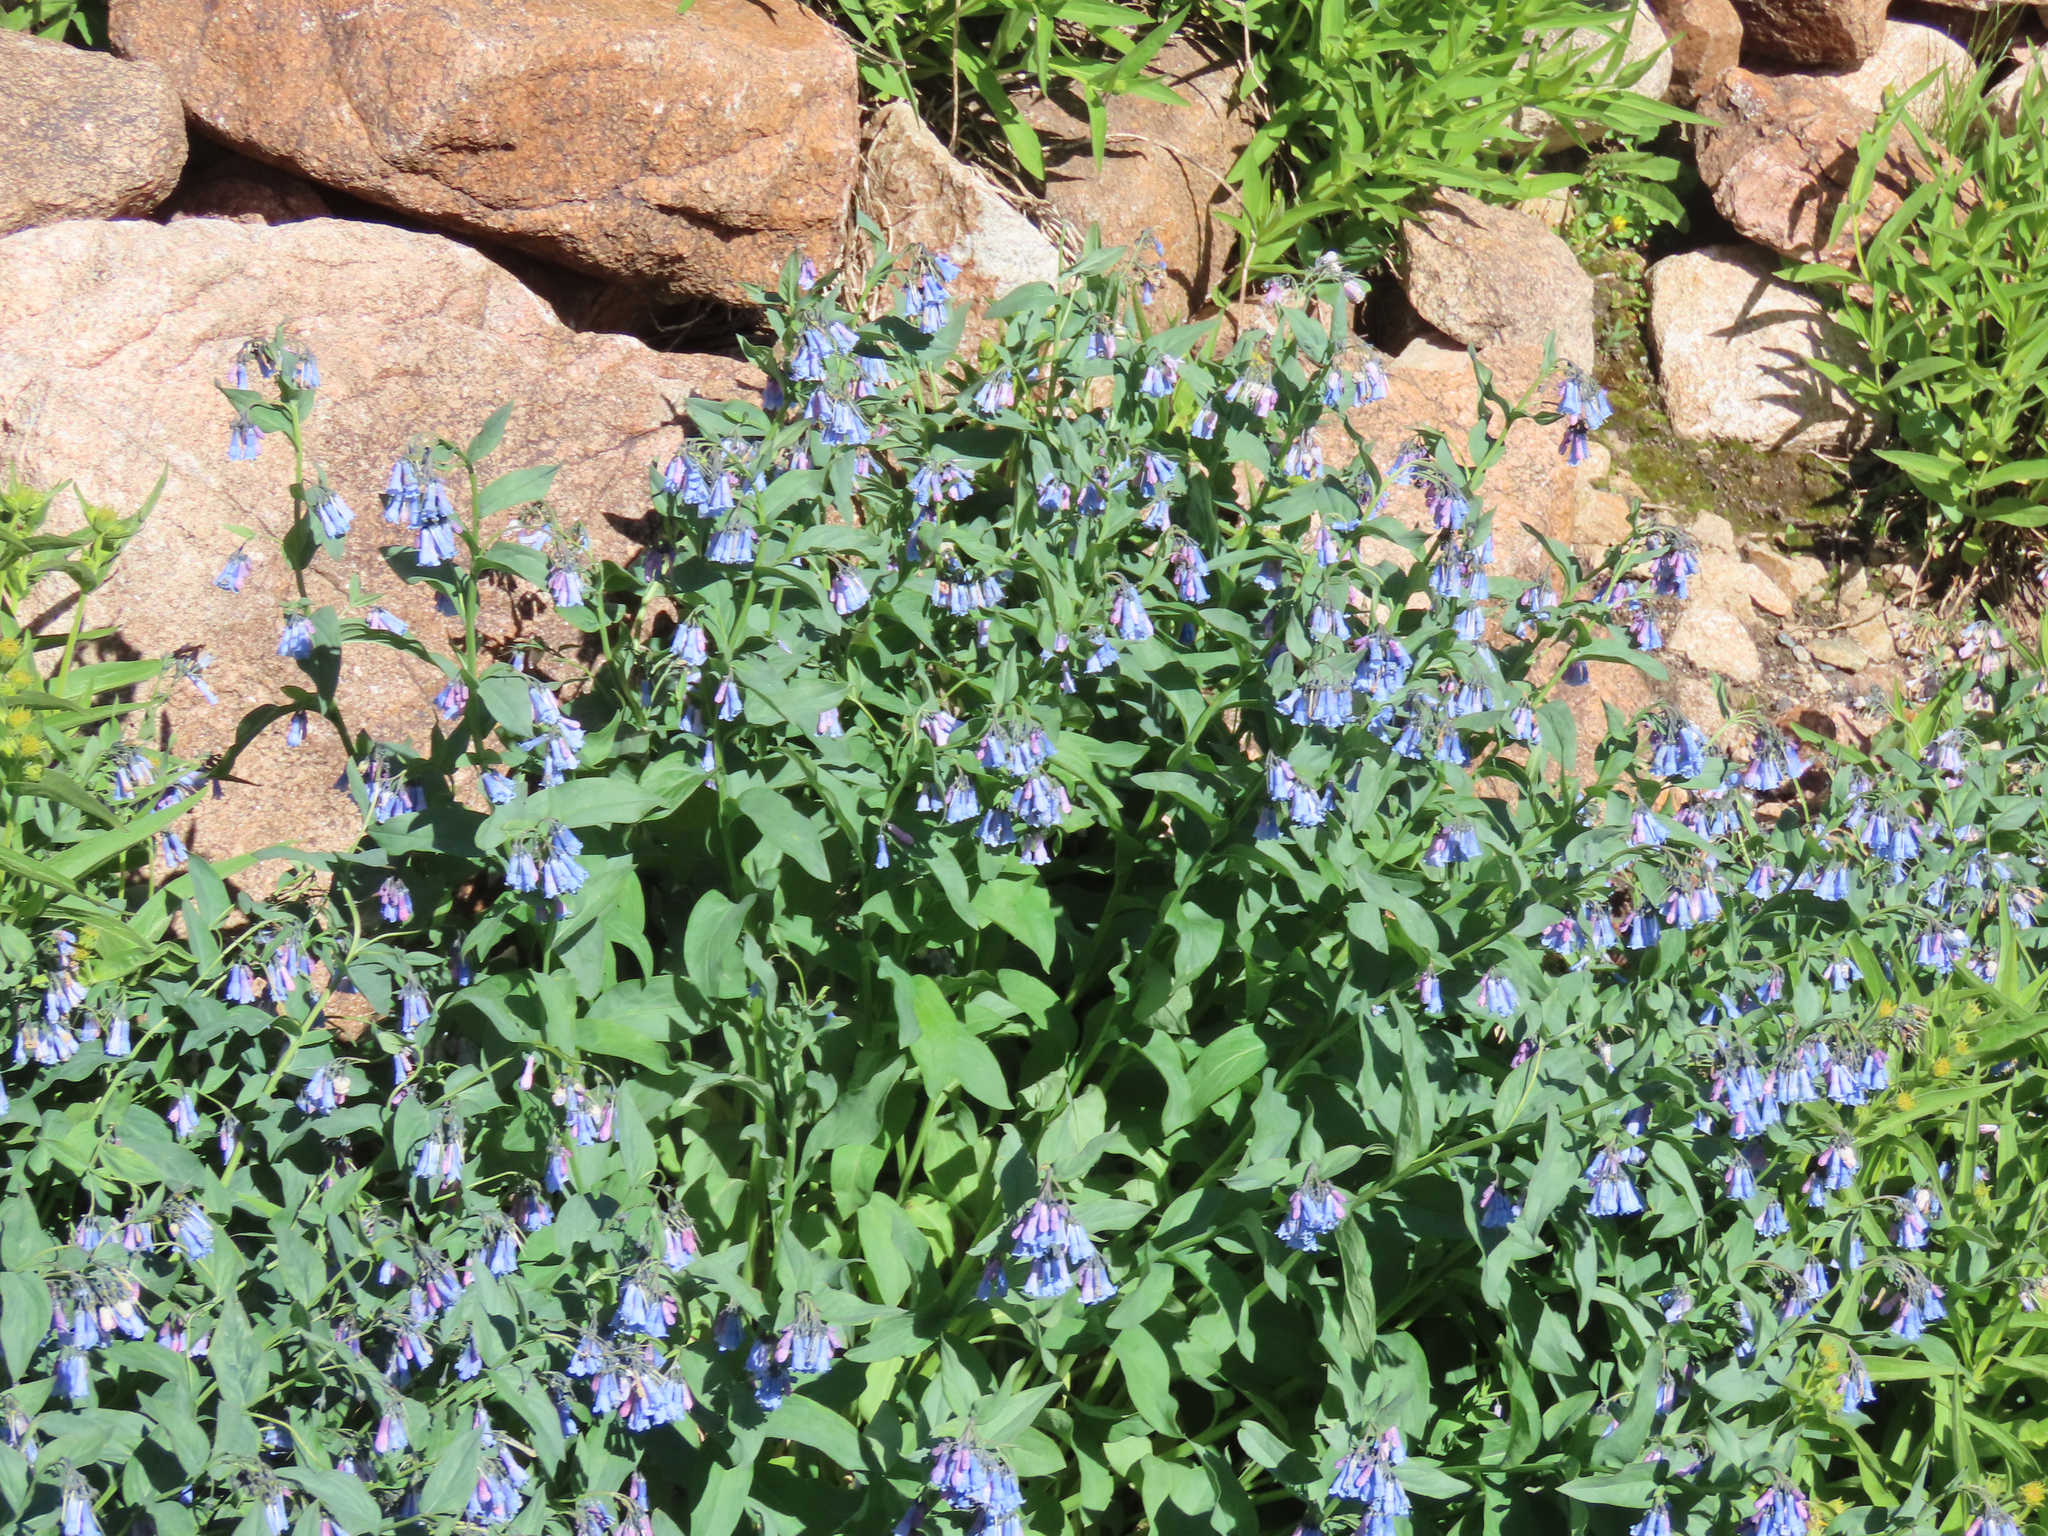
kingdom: Plantae
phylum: Tracheophyta
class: Magnoliopsida
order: Boraginales
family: Boraginaceae
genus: Mertensia
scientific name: Mertensia ciliata
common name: Tall chiming-bells
